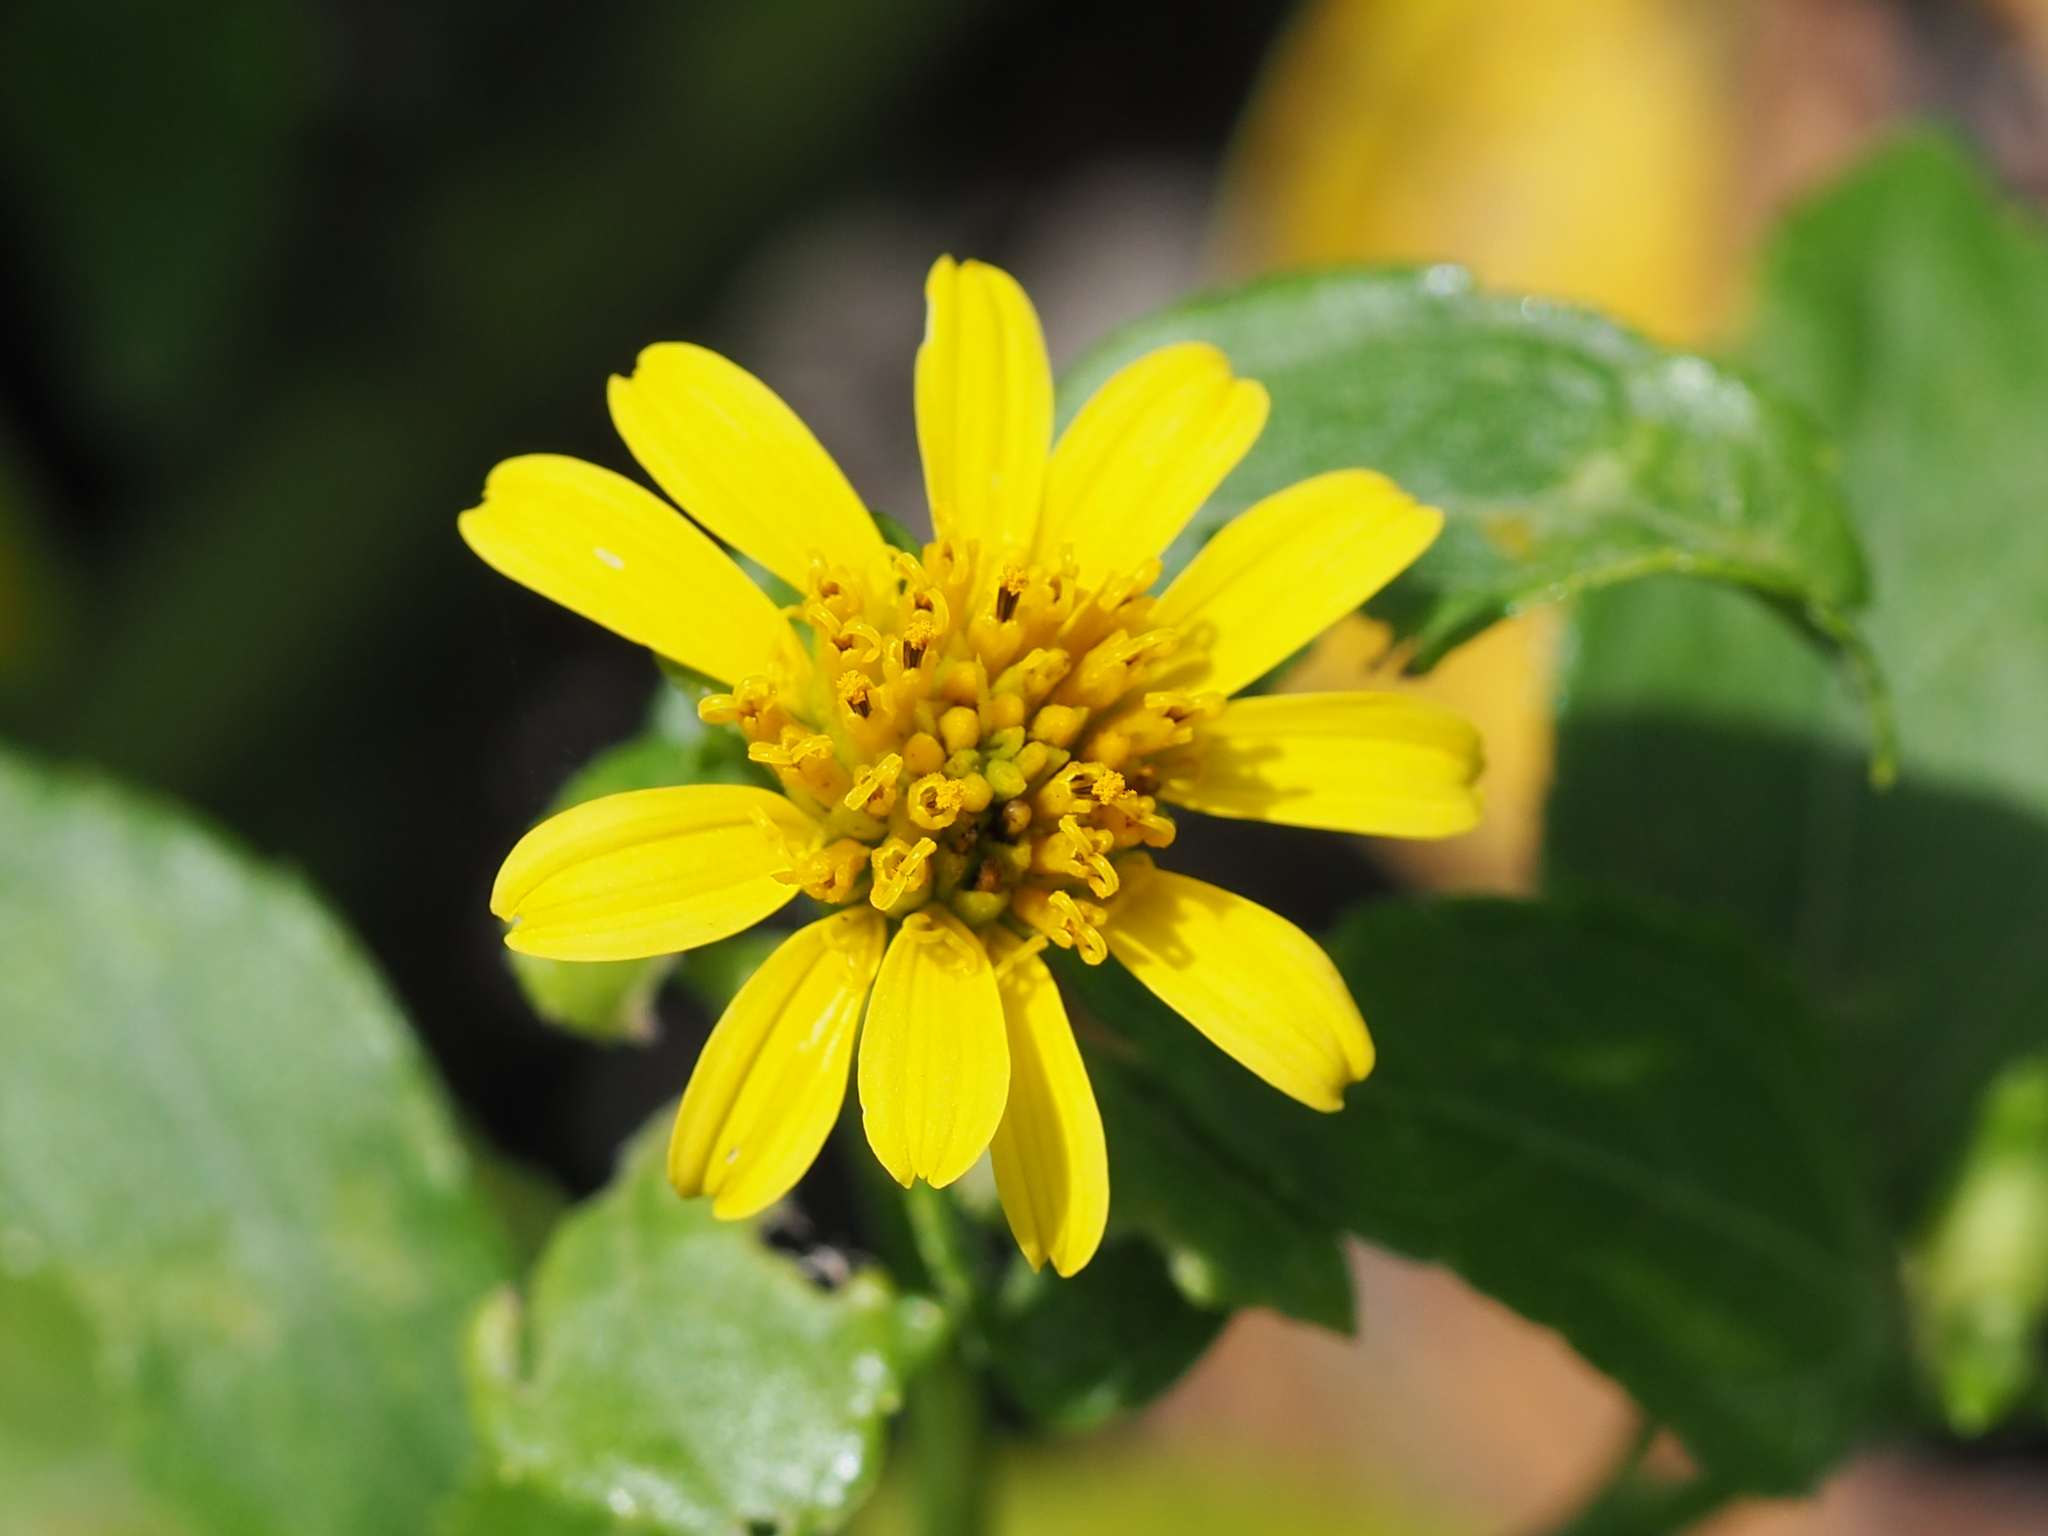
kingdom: Plantae
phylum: Tracheophyta
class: Magnoliopsida
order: Asterales
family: Asteraceae
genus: Wollastonia
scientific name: Wollastonia biflora
